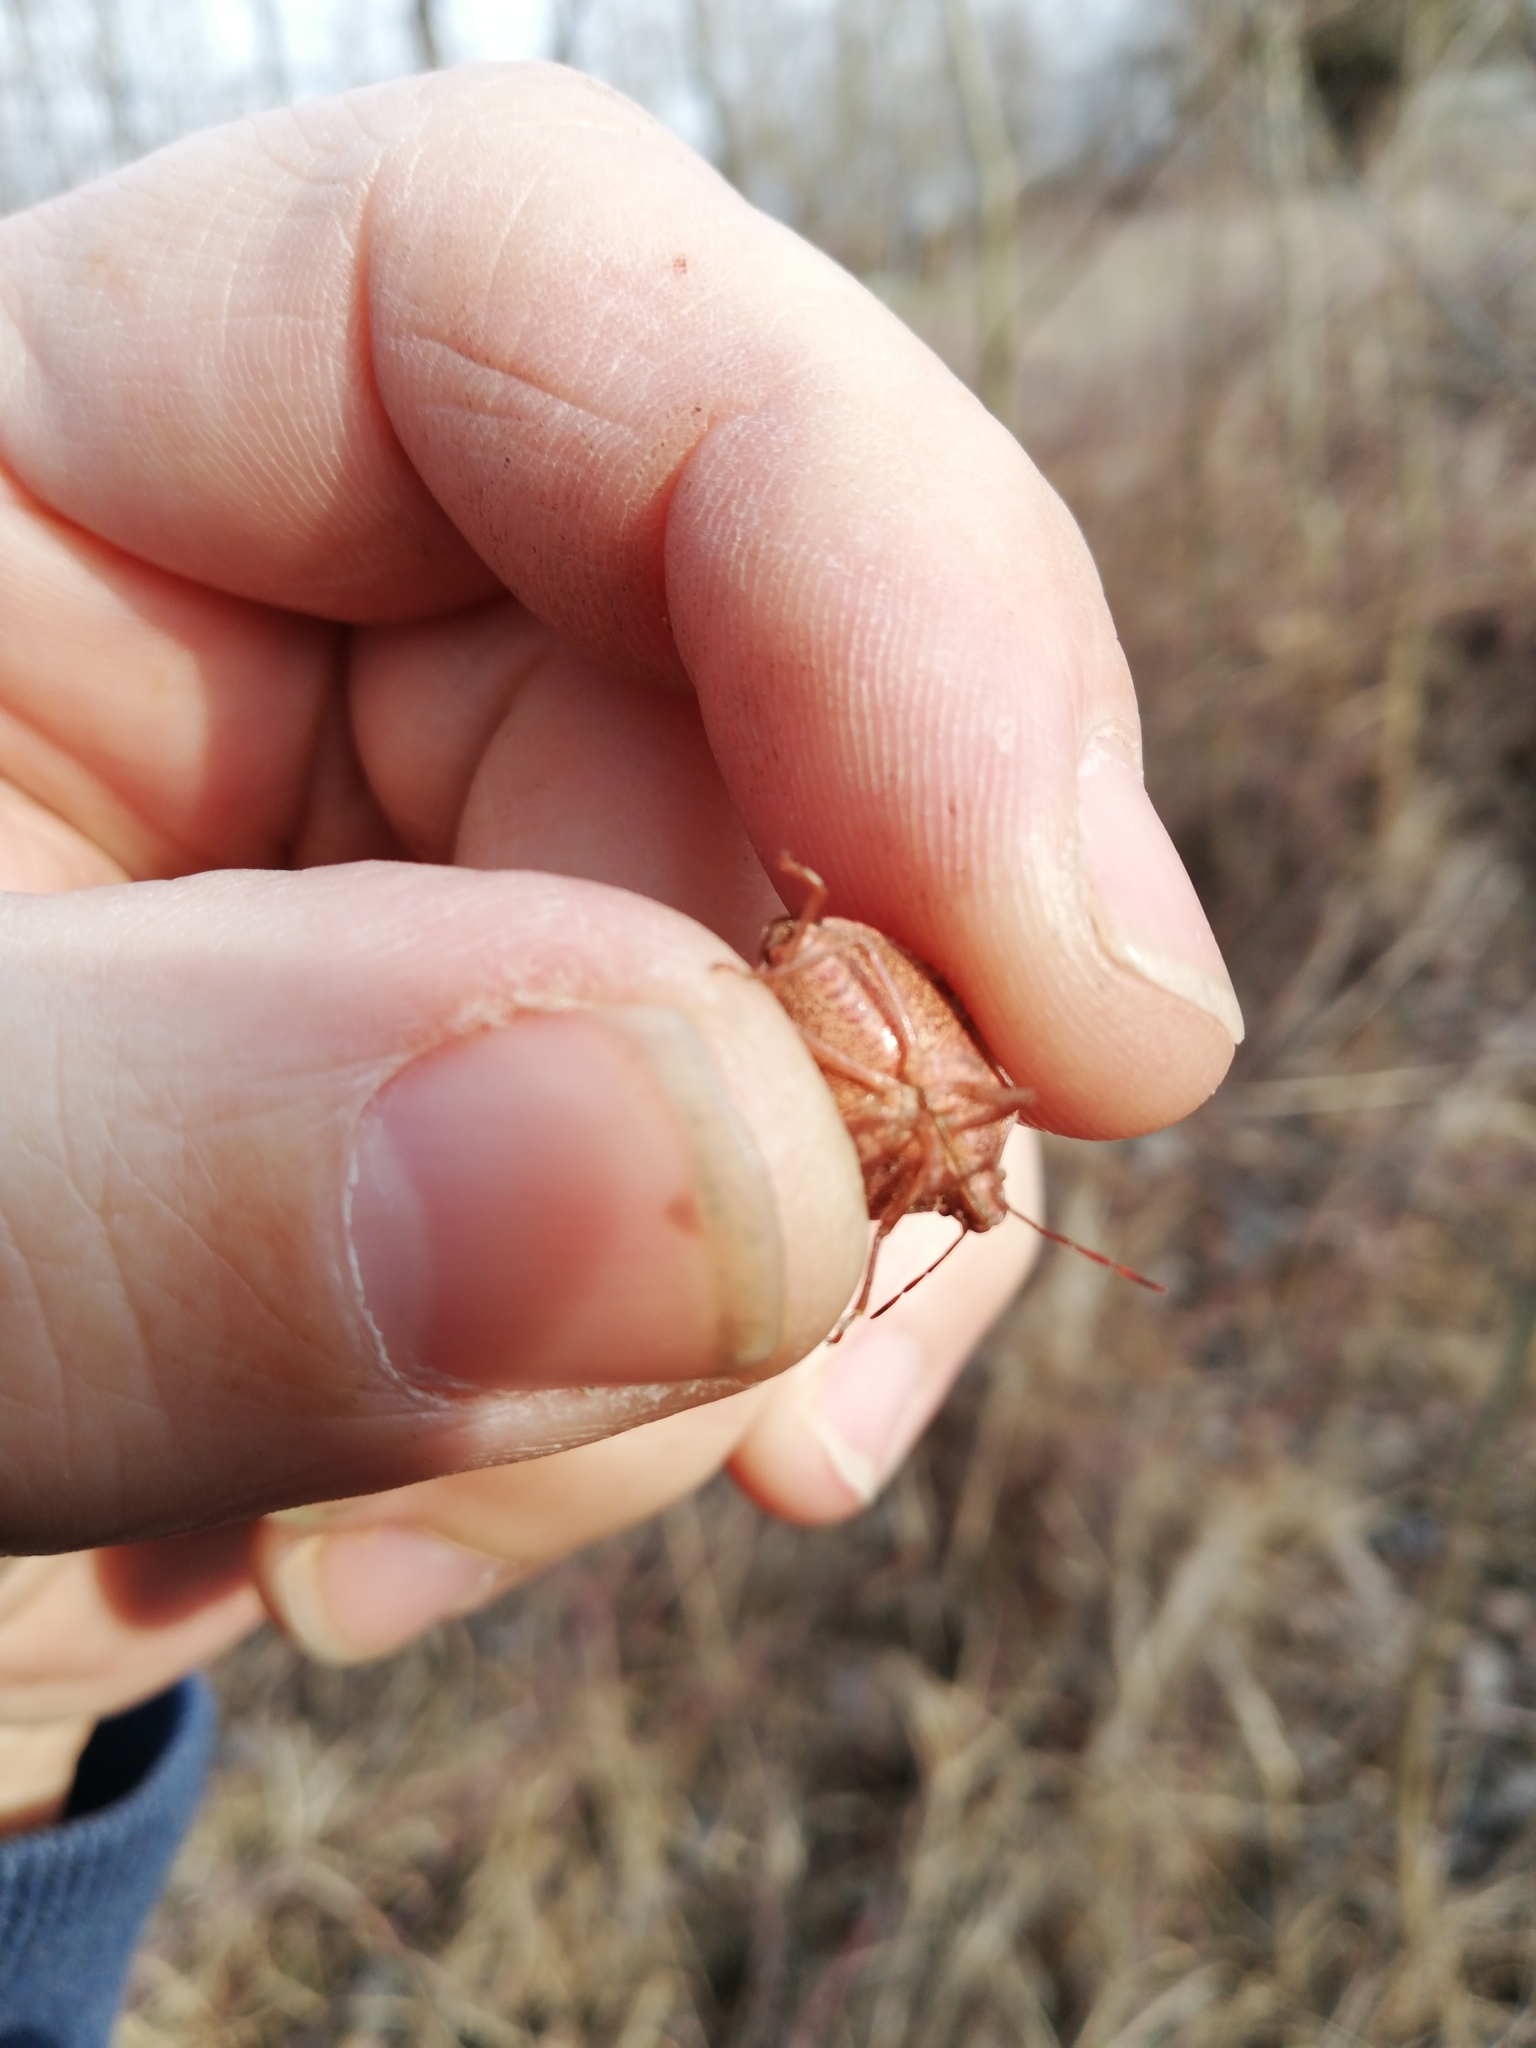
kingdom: Animalia
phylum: Arthropoda
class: Insecta
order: Hemiptera
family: Pentatomidae
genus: Palomena
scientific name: Palomena prasina
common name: Green shieldbug
